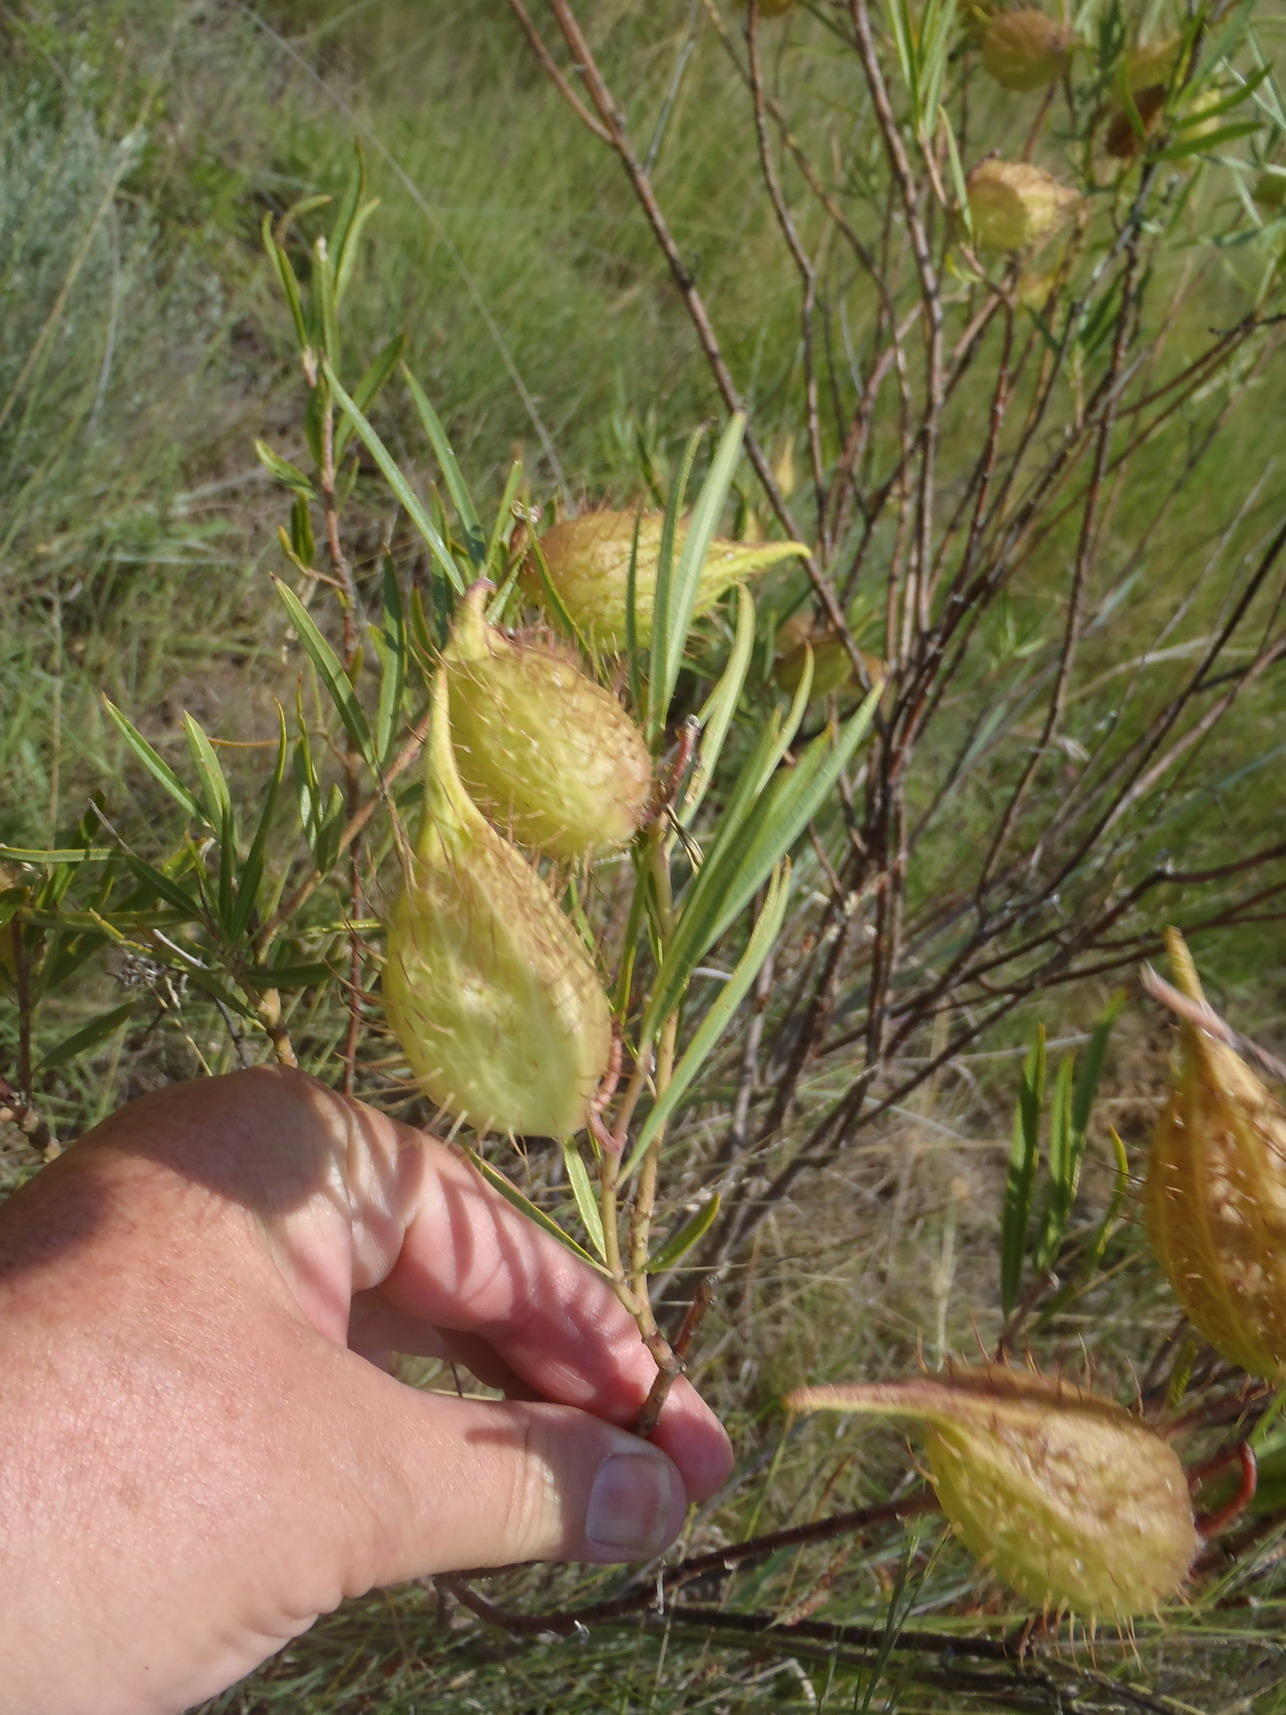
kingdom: Plantae
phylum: Tracheophyta
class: Magnoliopsida
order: Gentianales
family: Apocynaceae
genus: Gomphocarpus
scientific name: Gomphocarpus fruticosus
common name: Milkweed
